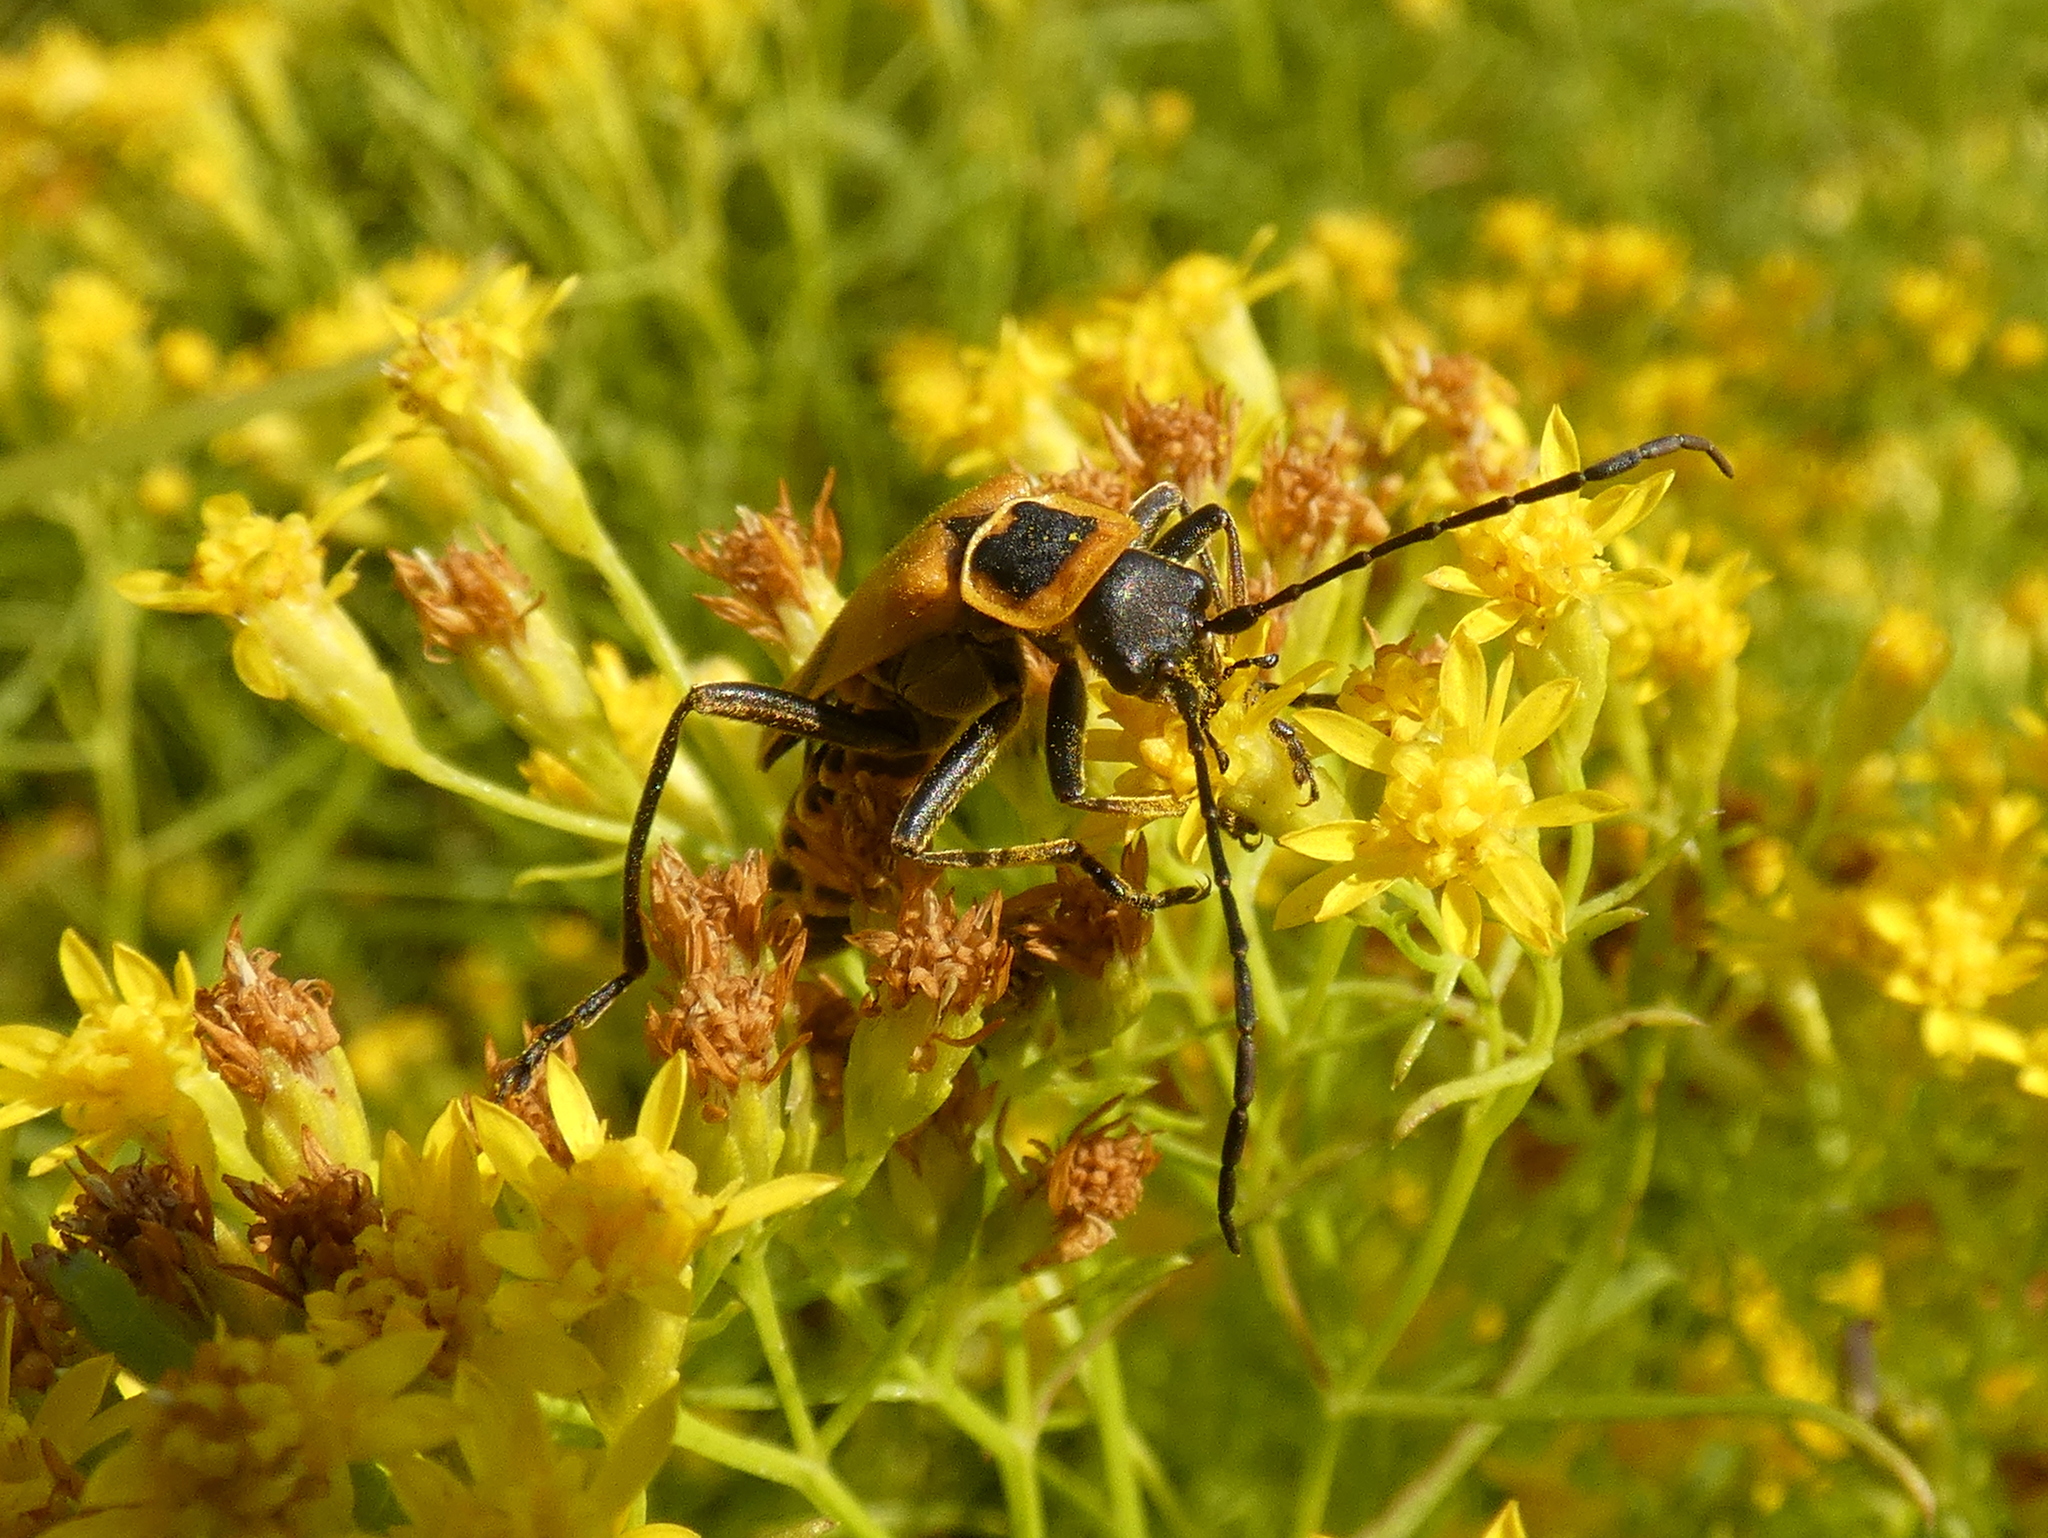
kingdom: Animalia
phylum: Arthropoda
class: Insecta
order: Coleoptera
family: Cantharidae
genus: Chauliognathus
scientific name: Chauliognathus pensylvanicus
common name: Goldenrod soldier beetle
